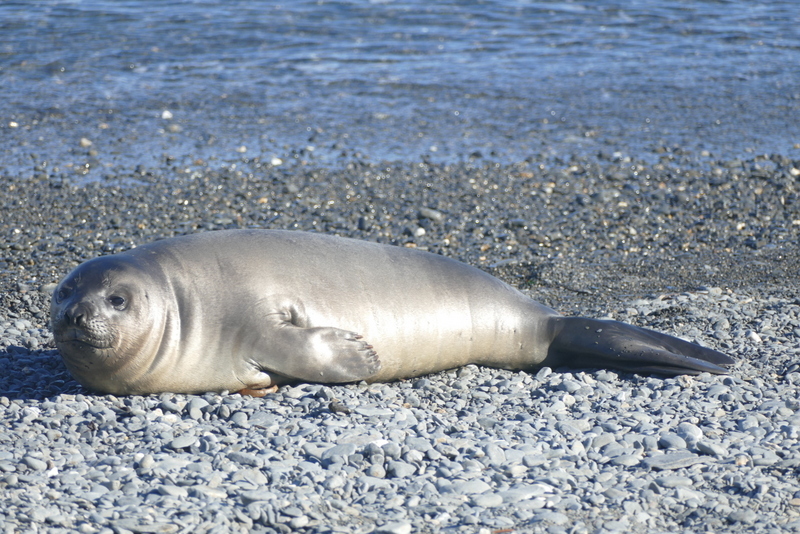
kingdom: Animalia
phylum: Chordata
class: Mammalia
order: Carnivora
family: Phocidae
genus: Mirounga
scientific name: Mirounga leonina
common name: Southern elephant seal
